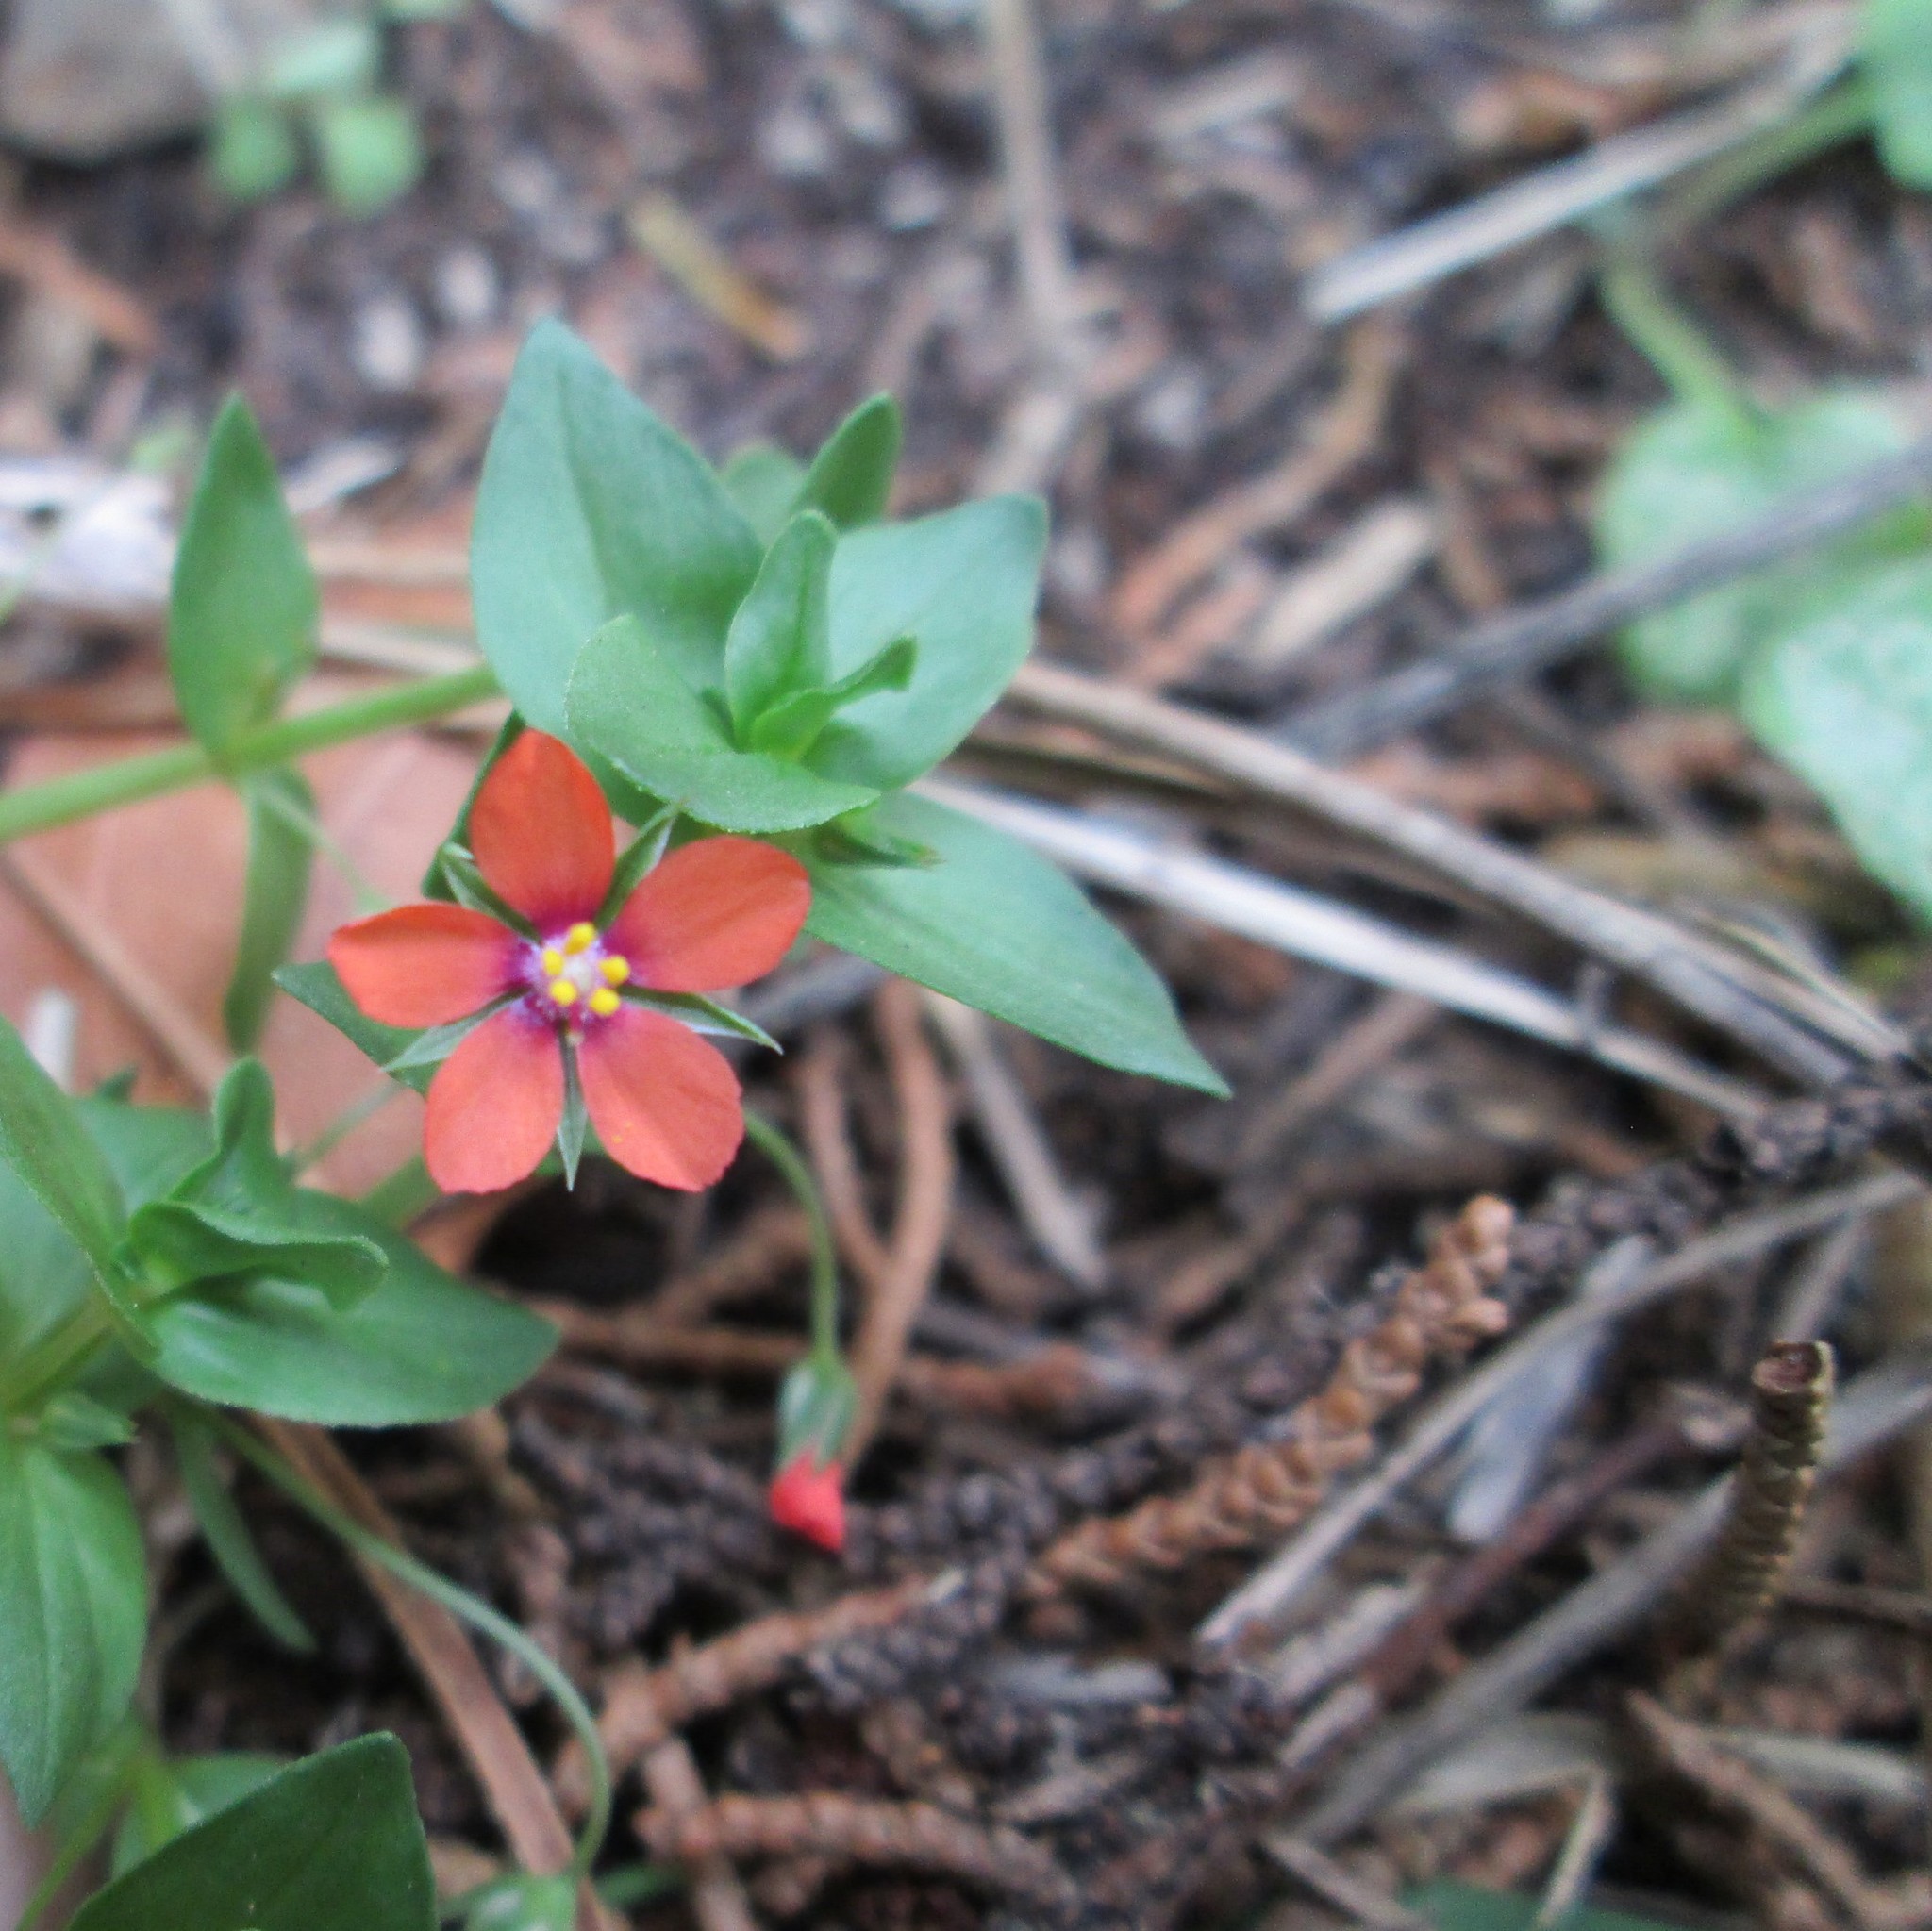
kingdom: Plantae
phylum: Tracheophyta
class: Magnoliopsida
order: Ericales
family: Primulaceae
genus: Lysimachia
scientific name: Lysimachia arvensis
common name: Scarlet pimpernel
